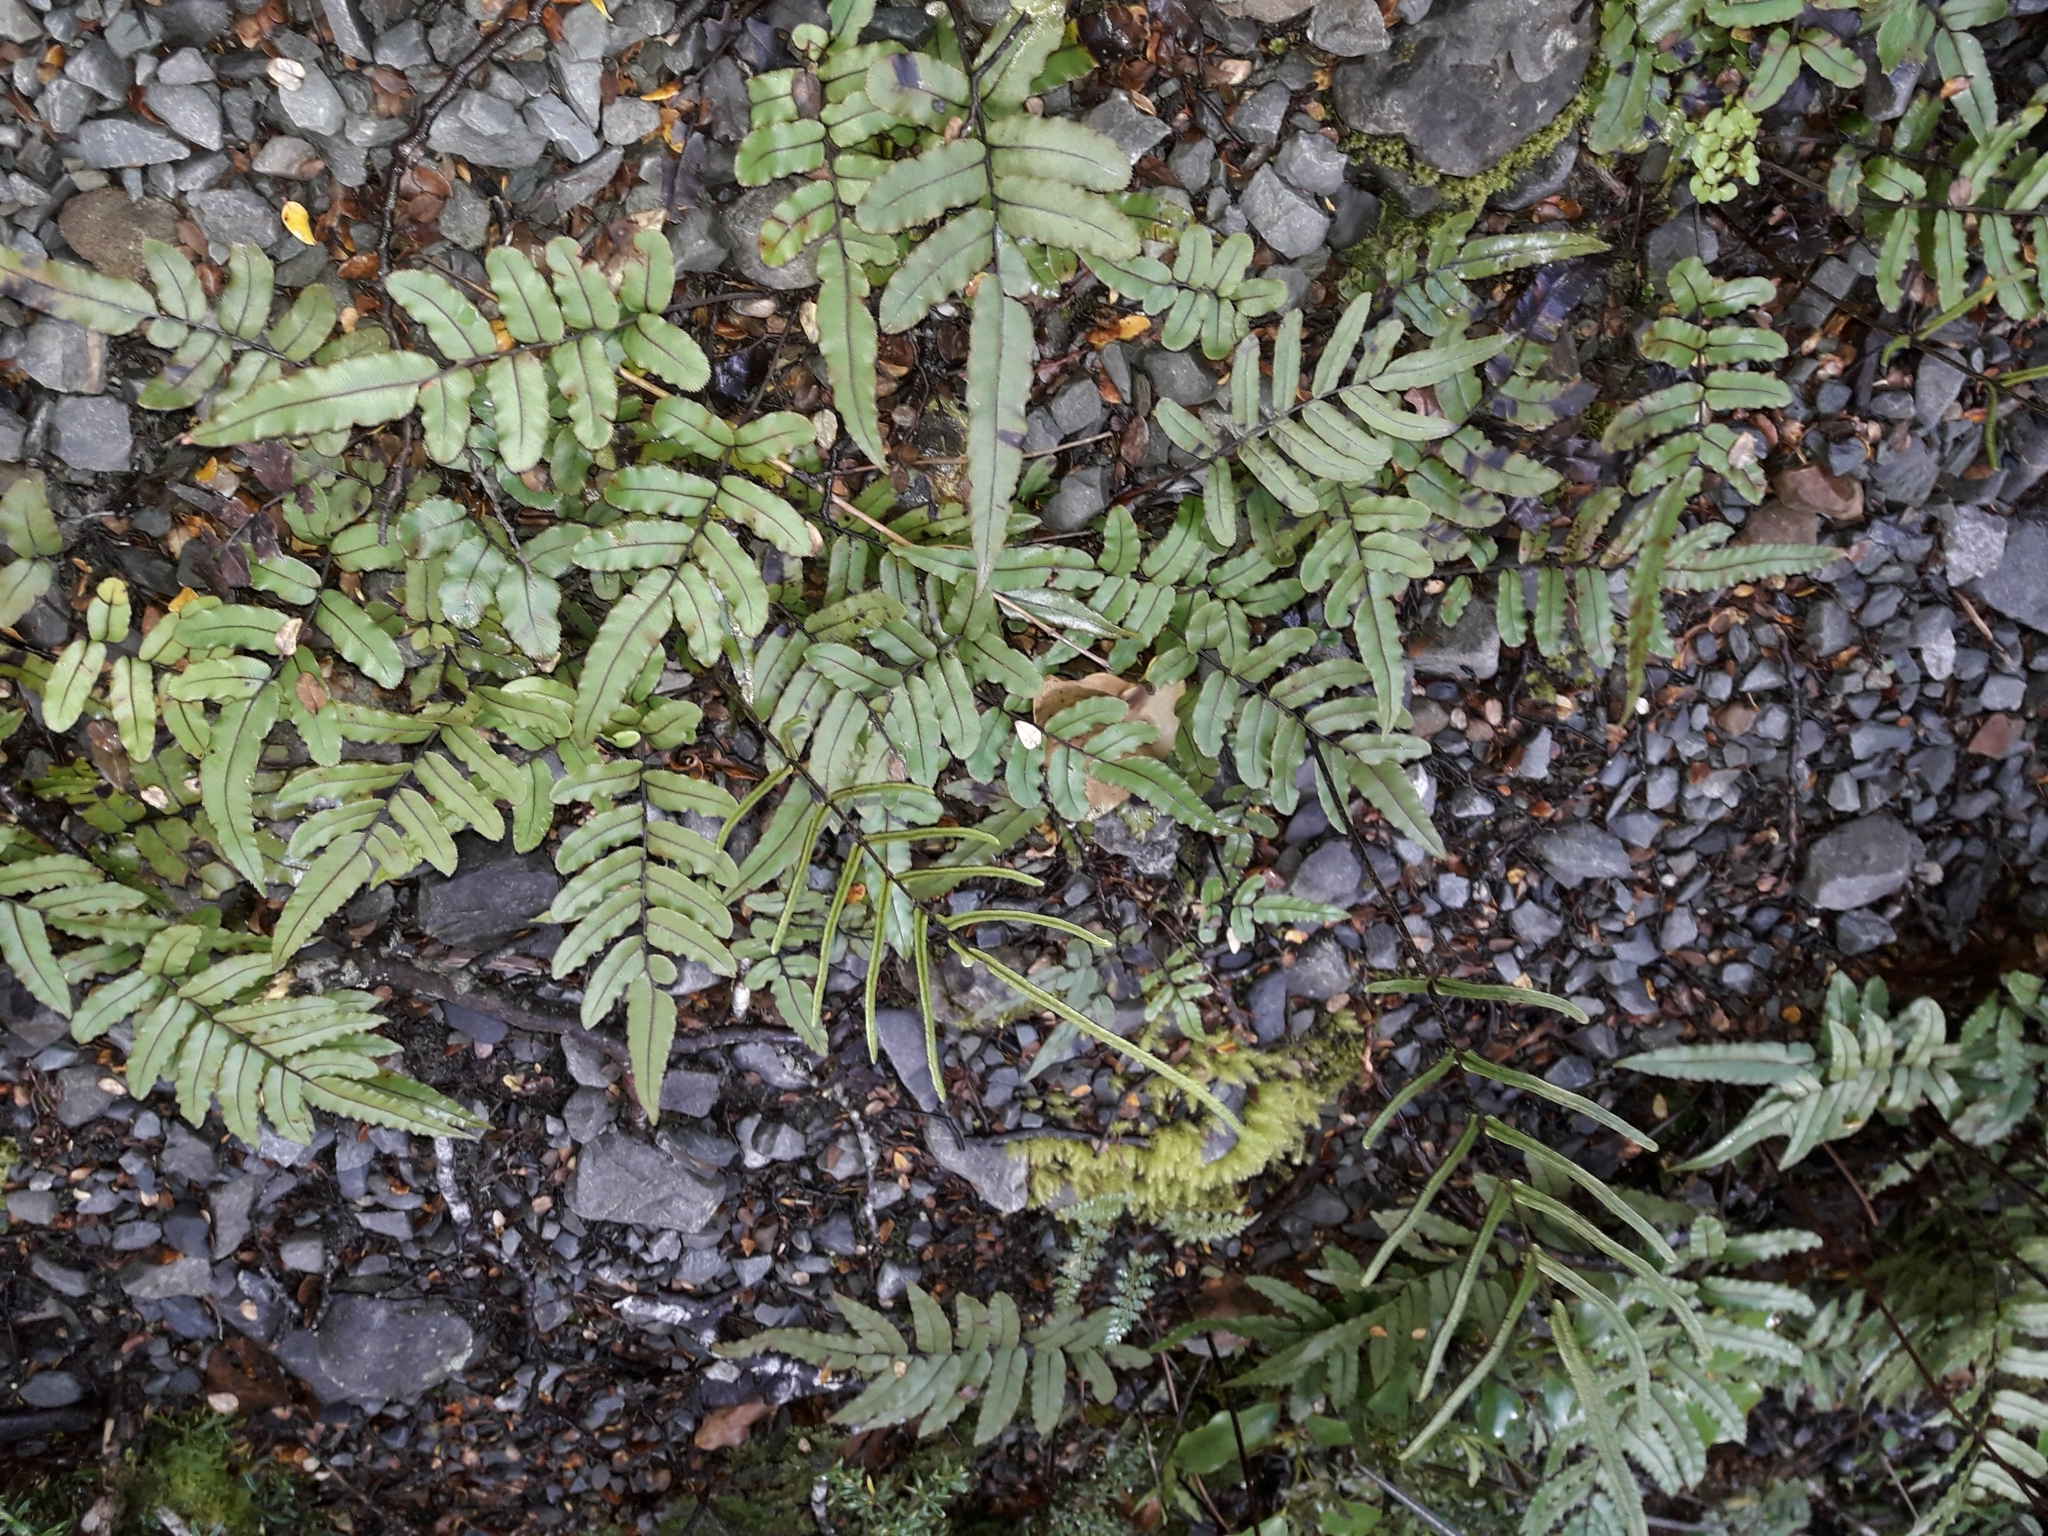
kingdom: Plantae
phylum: Tracheophyta
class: Polypodiopsida
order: Polypodiales
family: Blechnaceae
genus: Parablechnum
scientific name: Parablechnum procerum
